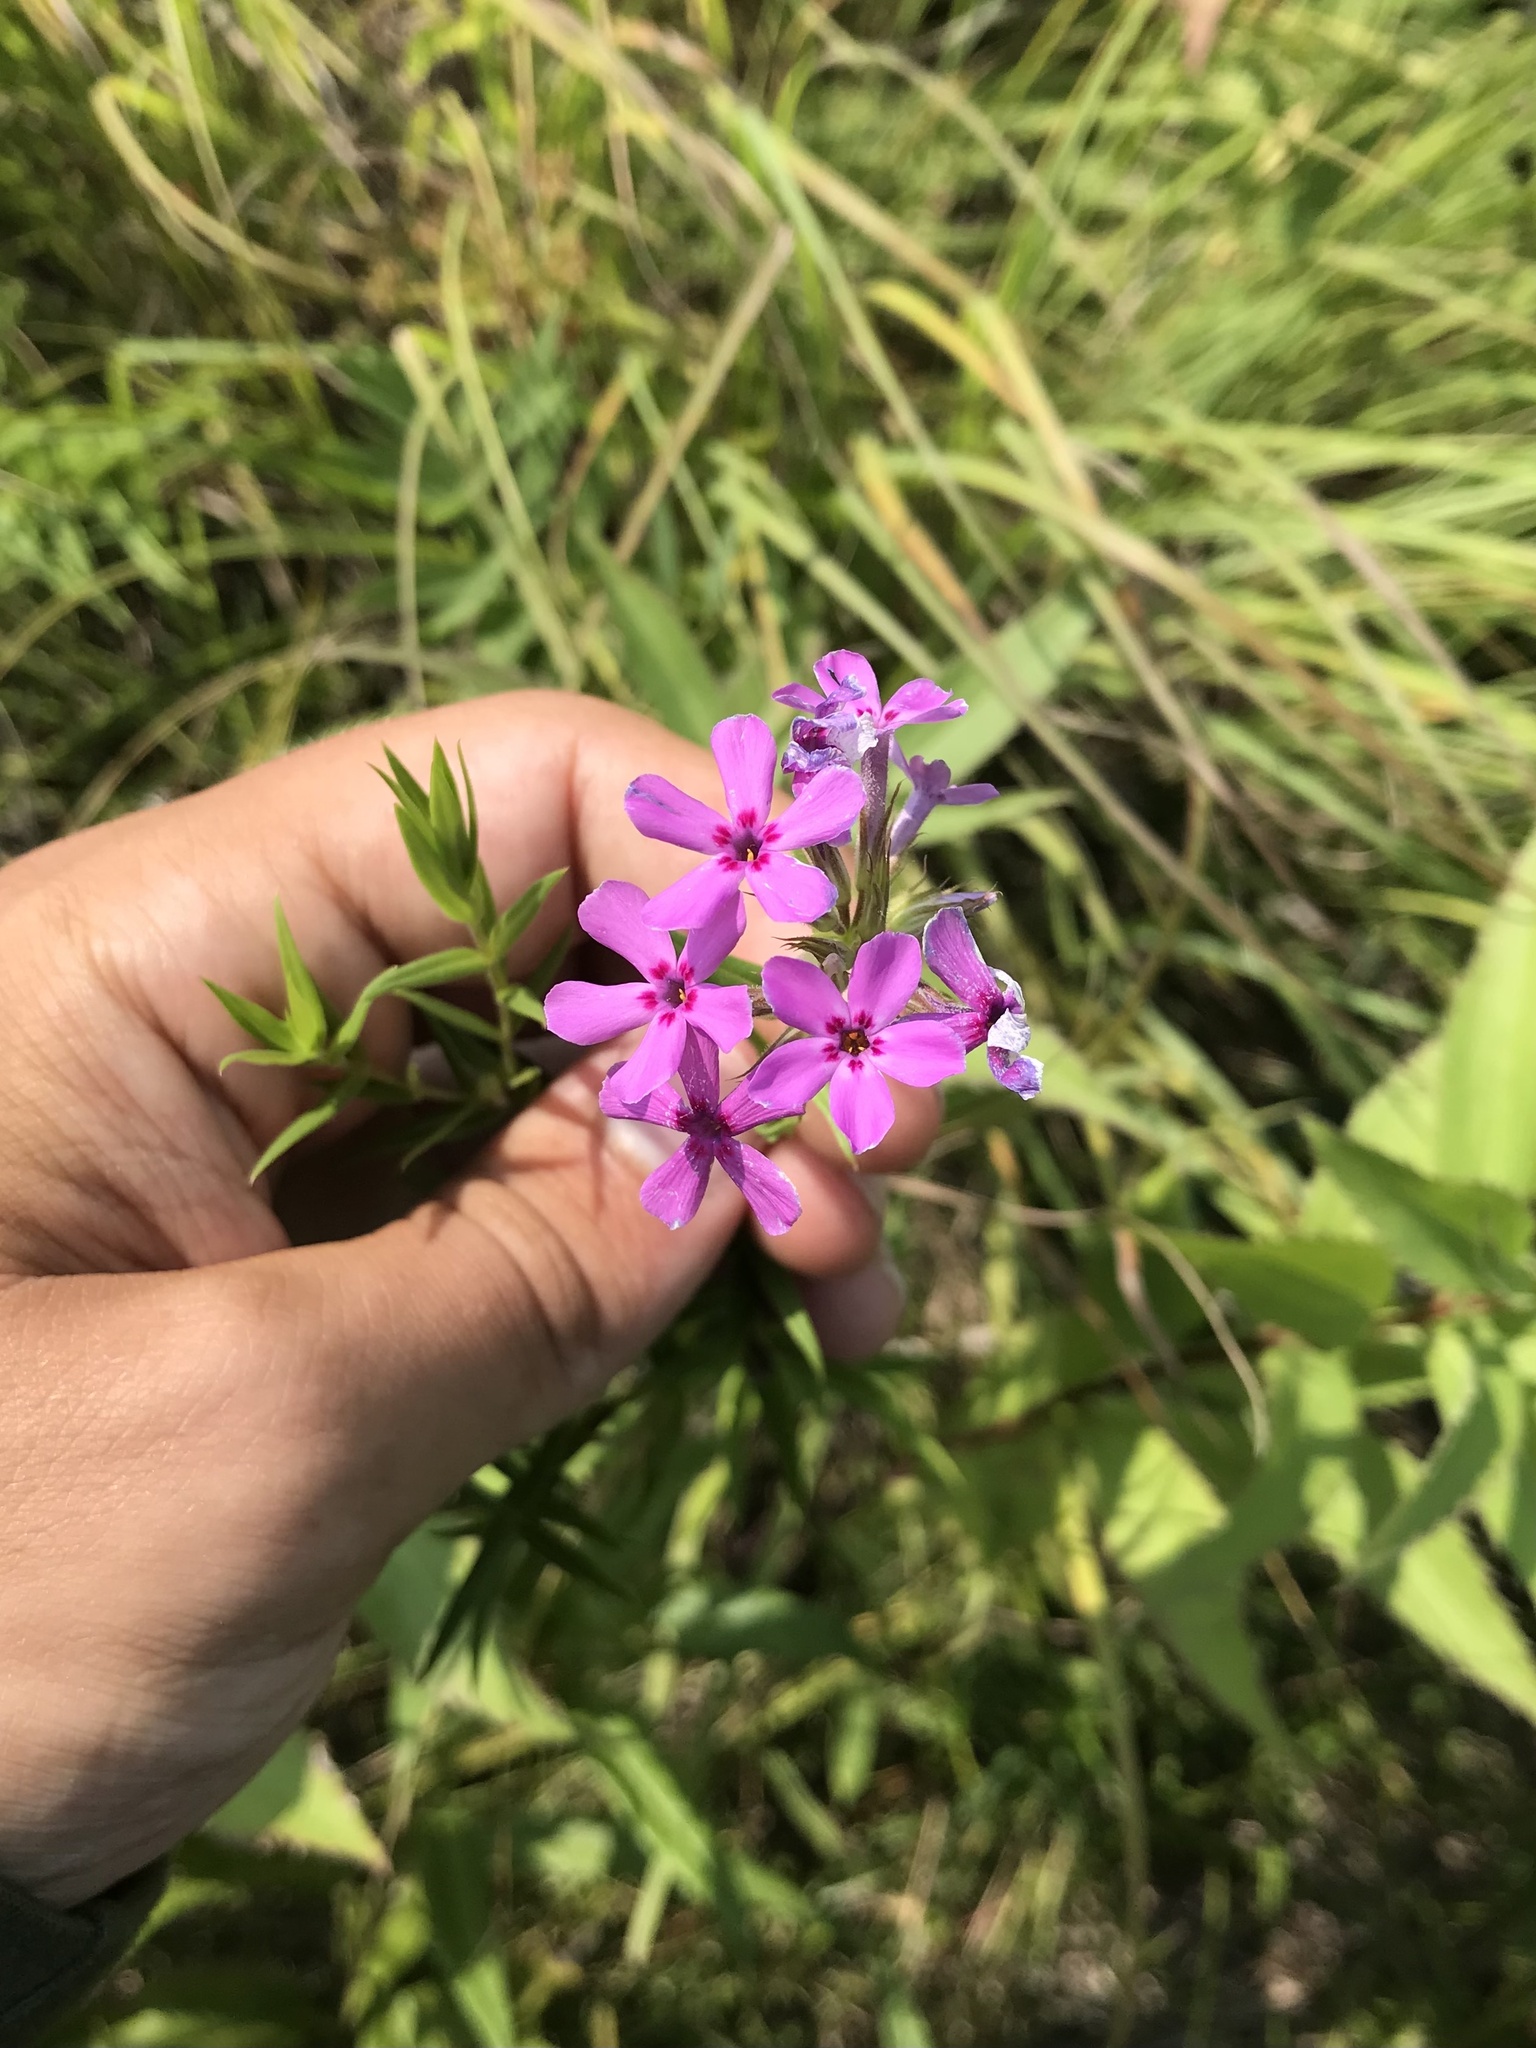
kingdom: Plantae
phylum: Tracheophyta
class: Magnoliopsida
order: Ericales
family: Polemoniaceae
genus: Phlox
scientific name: Phlox pilosa
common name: Prairie phlox
